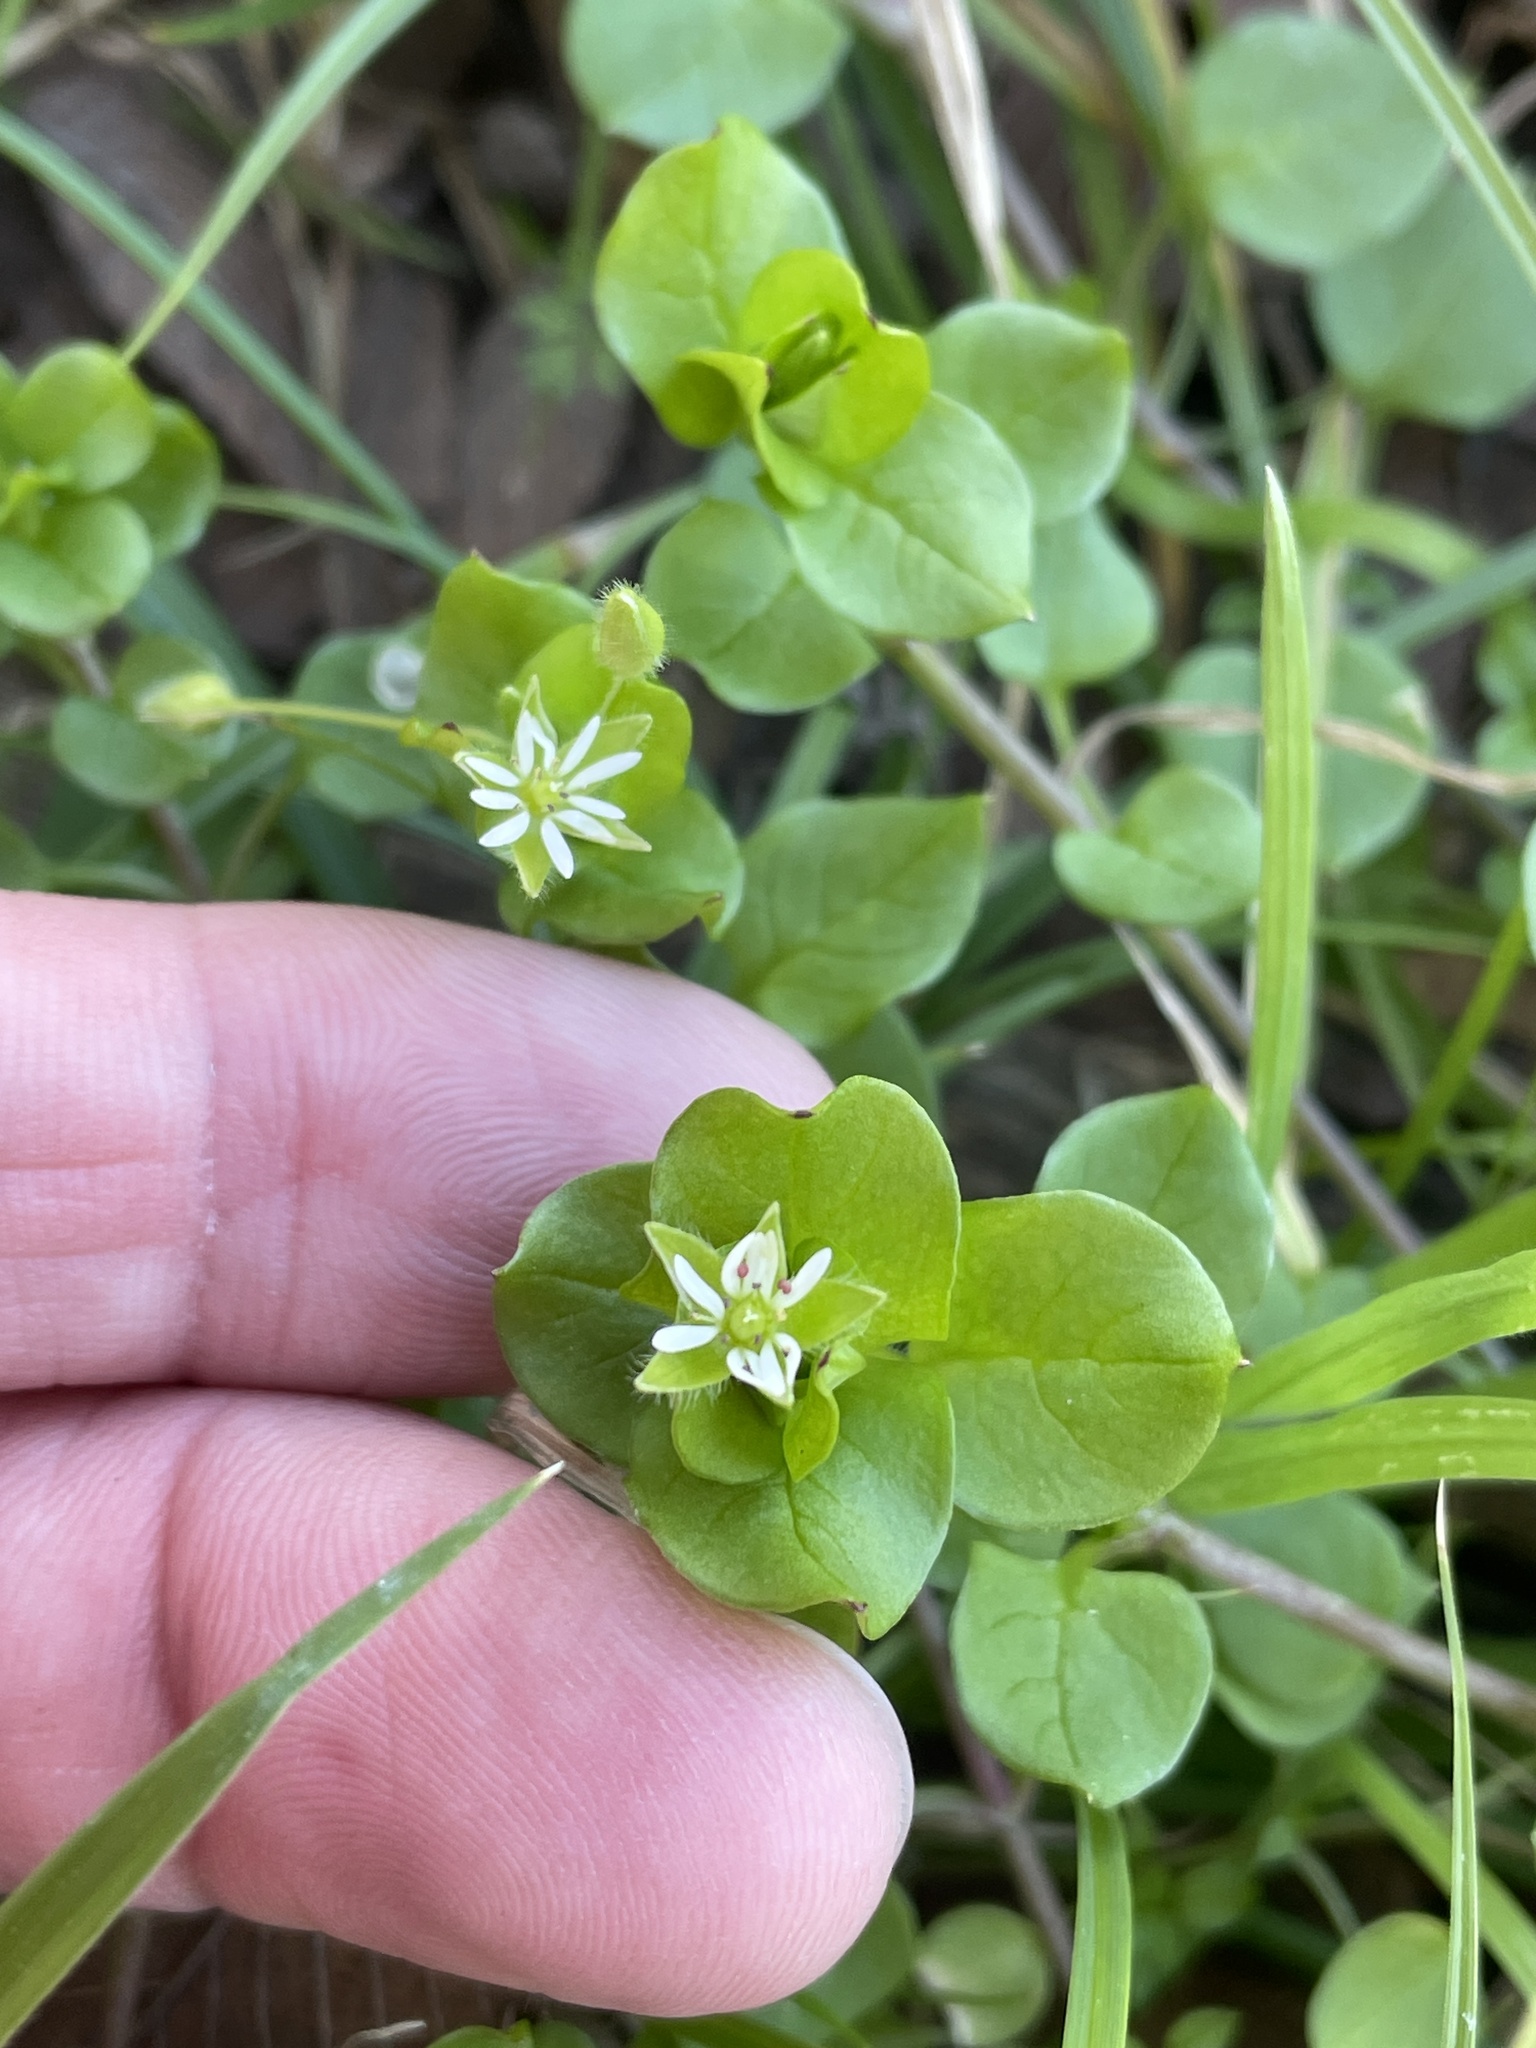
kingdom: Plantae
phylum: Tracheophyta
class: Magnoliopsida
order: Caryophyllales
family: Caryophyllaceae
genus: Stellaria
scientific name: Stellaria media
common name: Common chickweed
